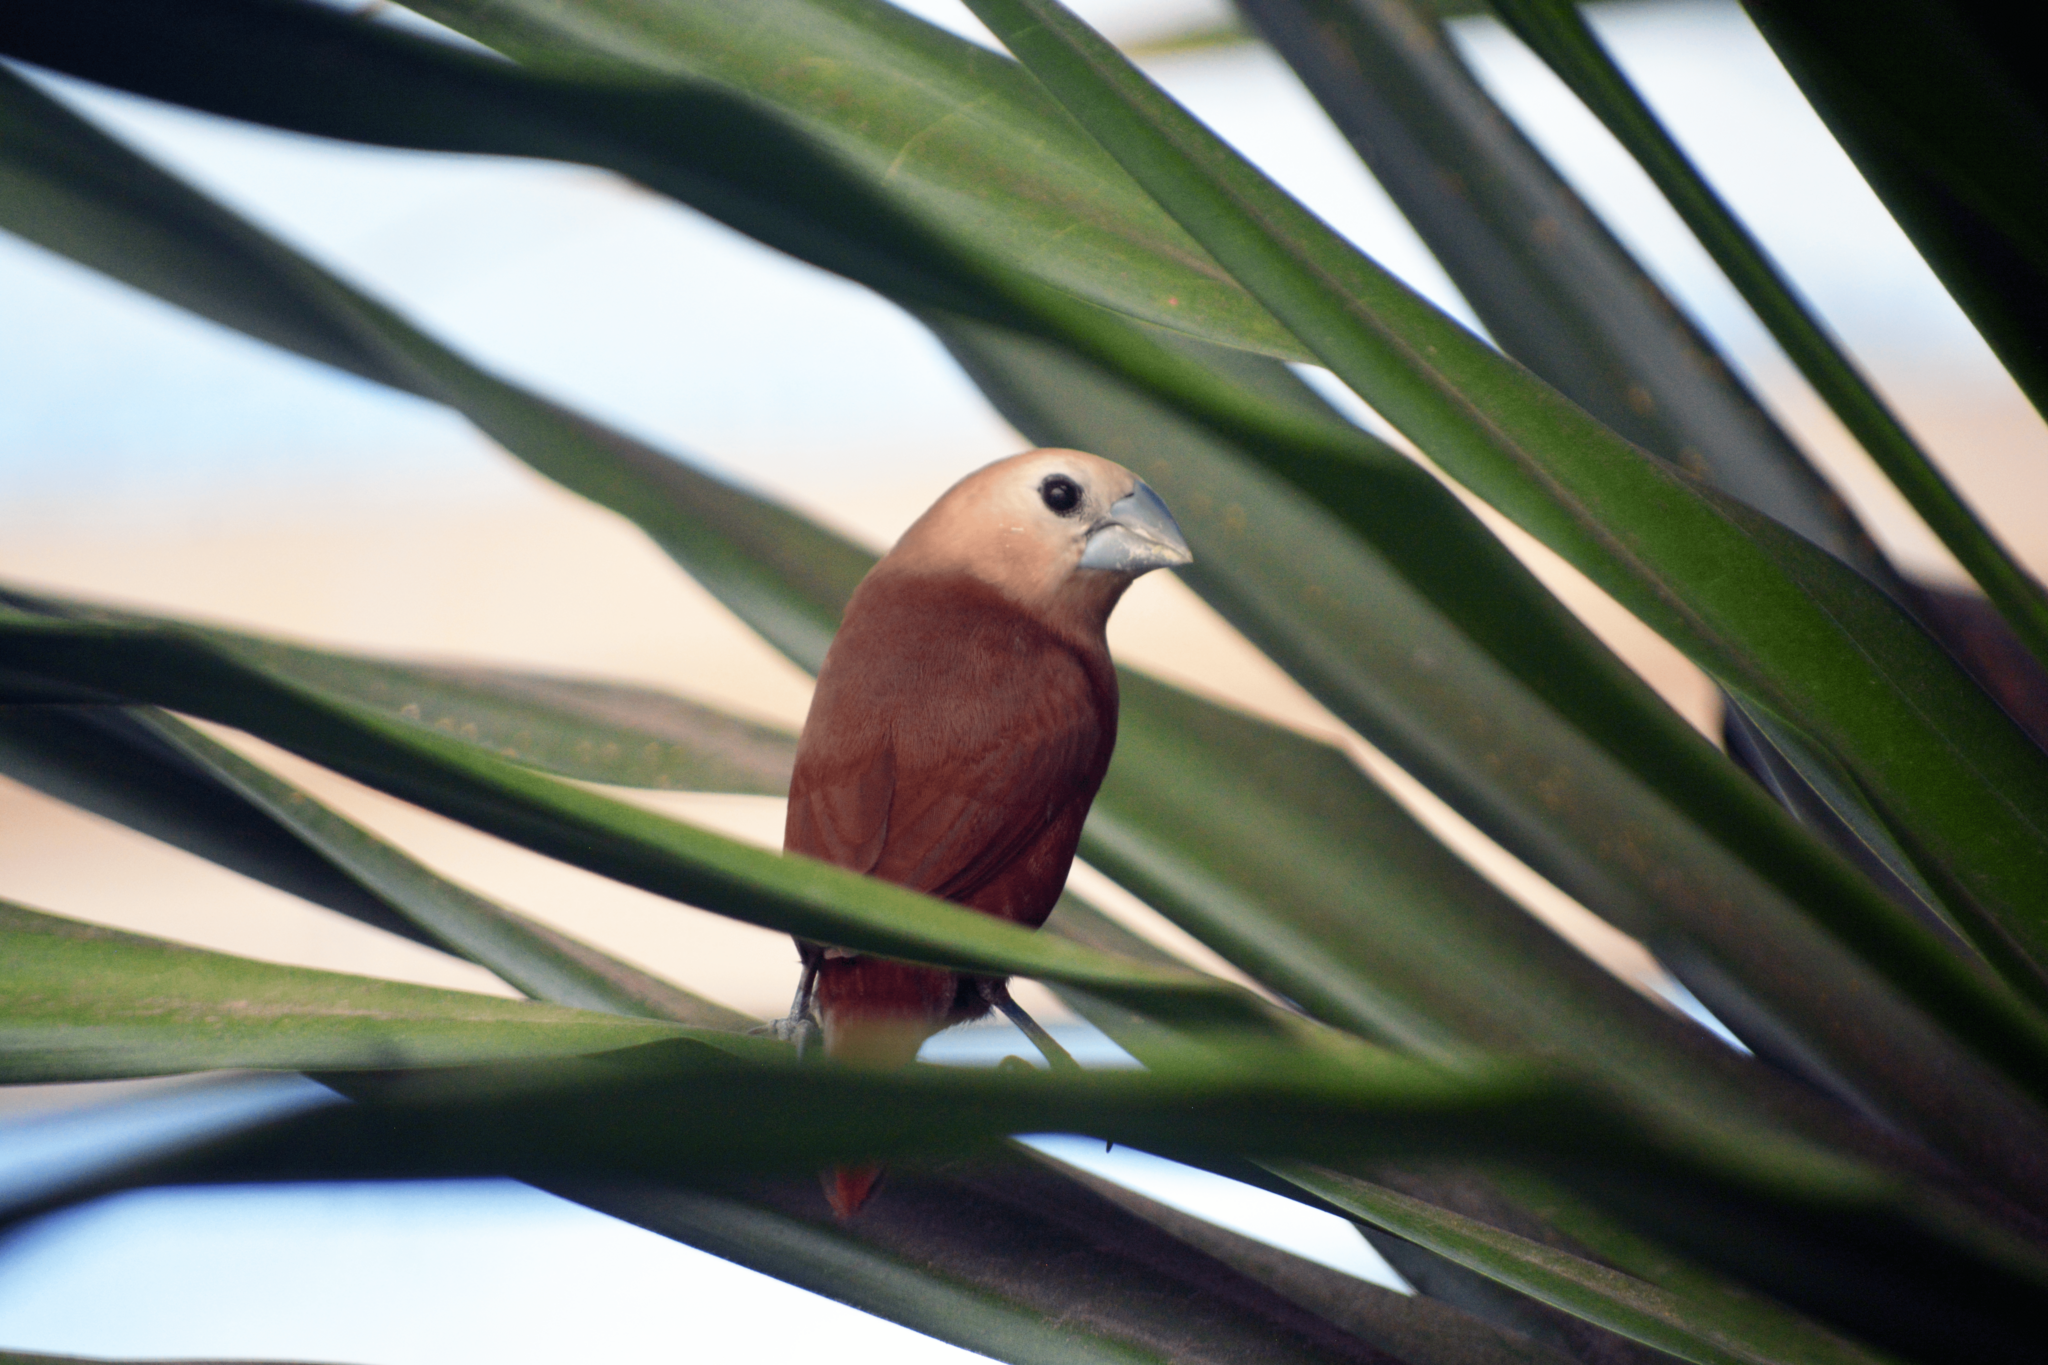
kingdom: Animalia
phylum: Chordata
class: Aves
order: Passeriformes
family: Estrildidae
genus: Lonchura
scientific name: Lonchura maja
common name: White-headed munia
